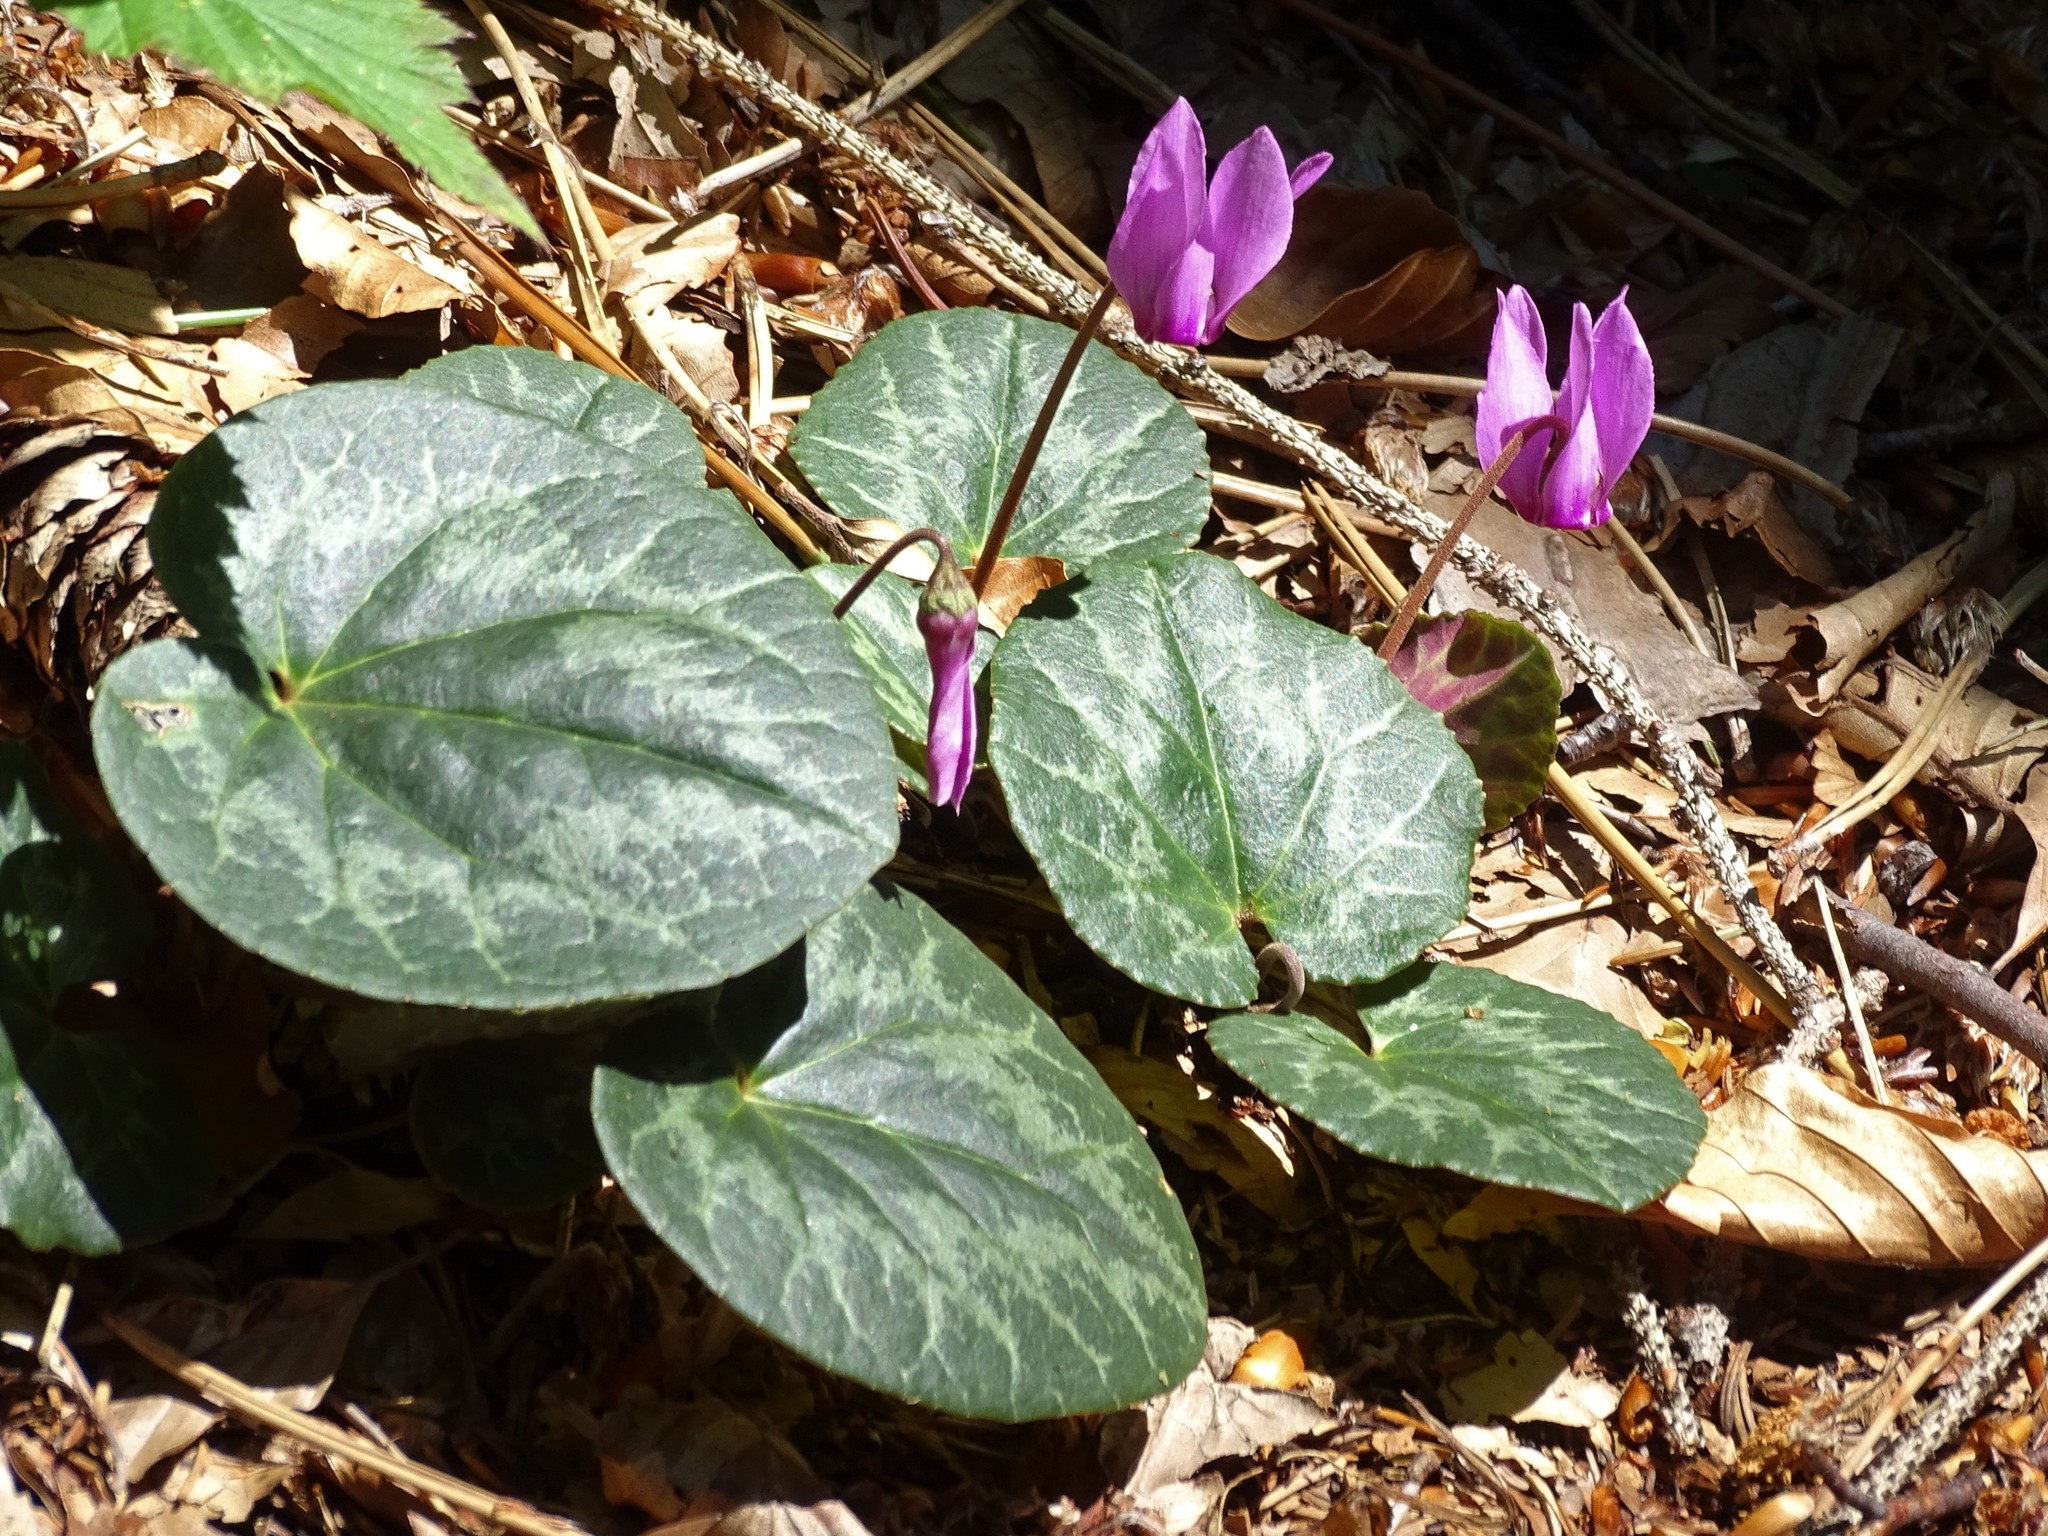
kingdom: Plantae
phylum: Tracheophyta
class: Magnoliopsida
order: Ericales
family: Primulaceae
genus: Cyclamen
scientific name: Cyclamen purpurascens
